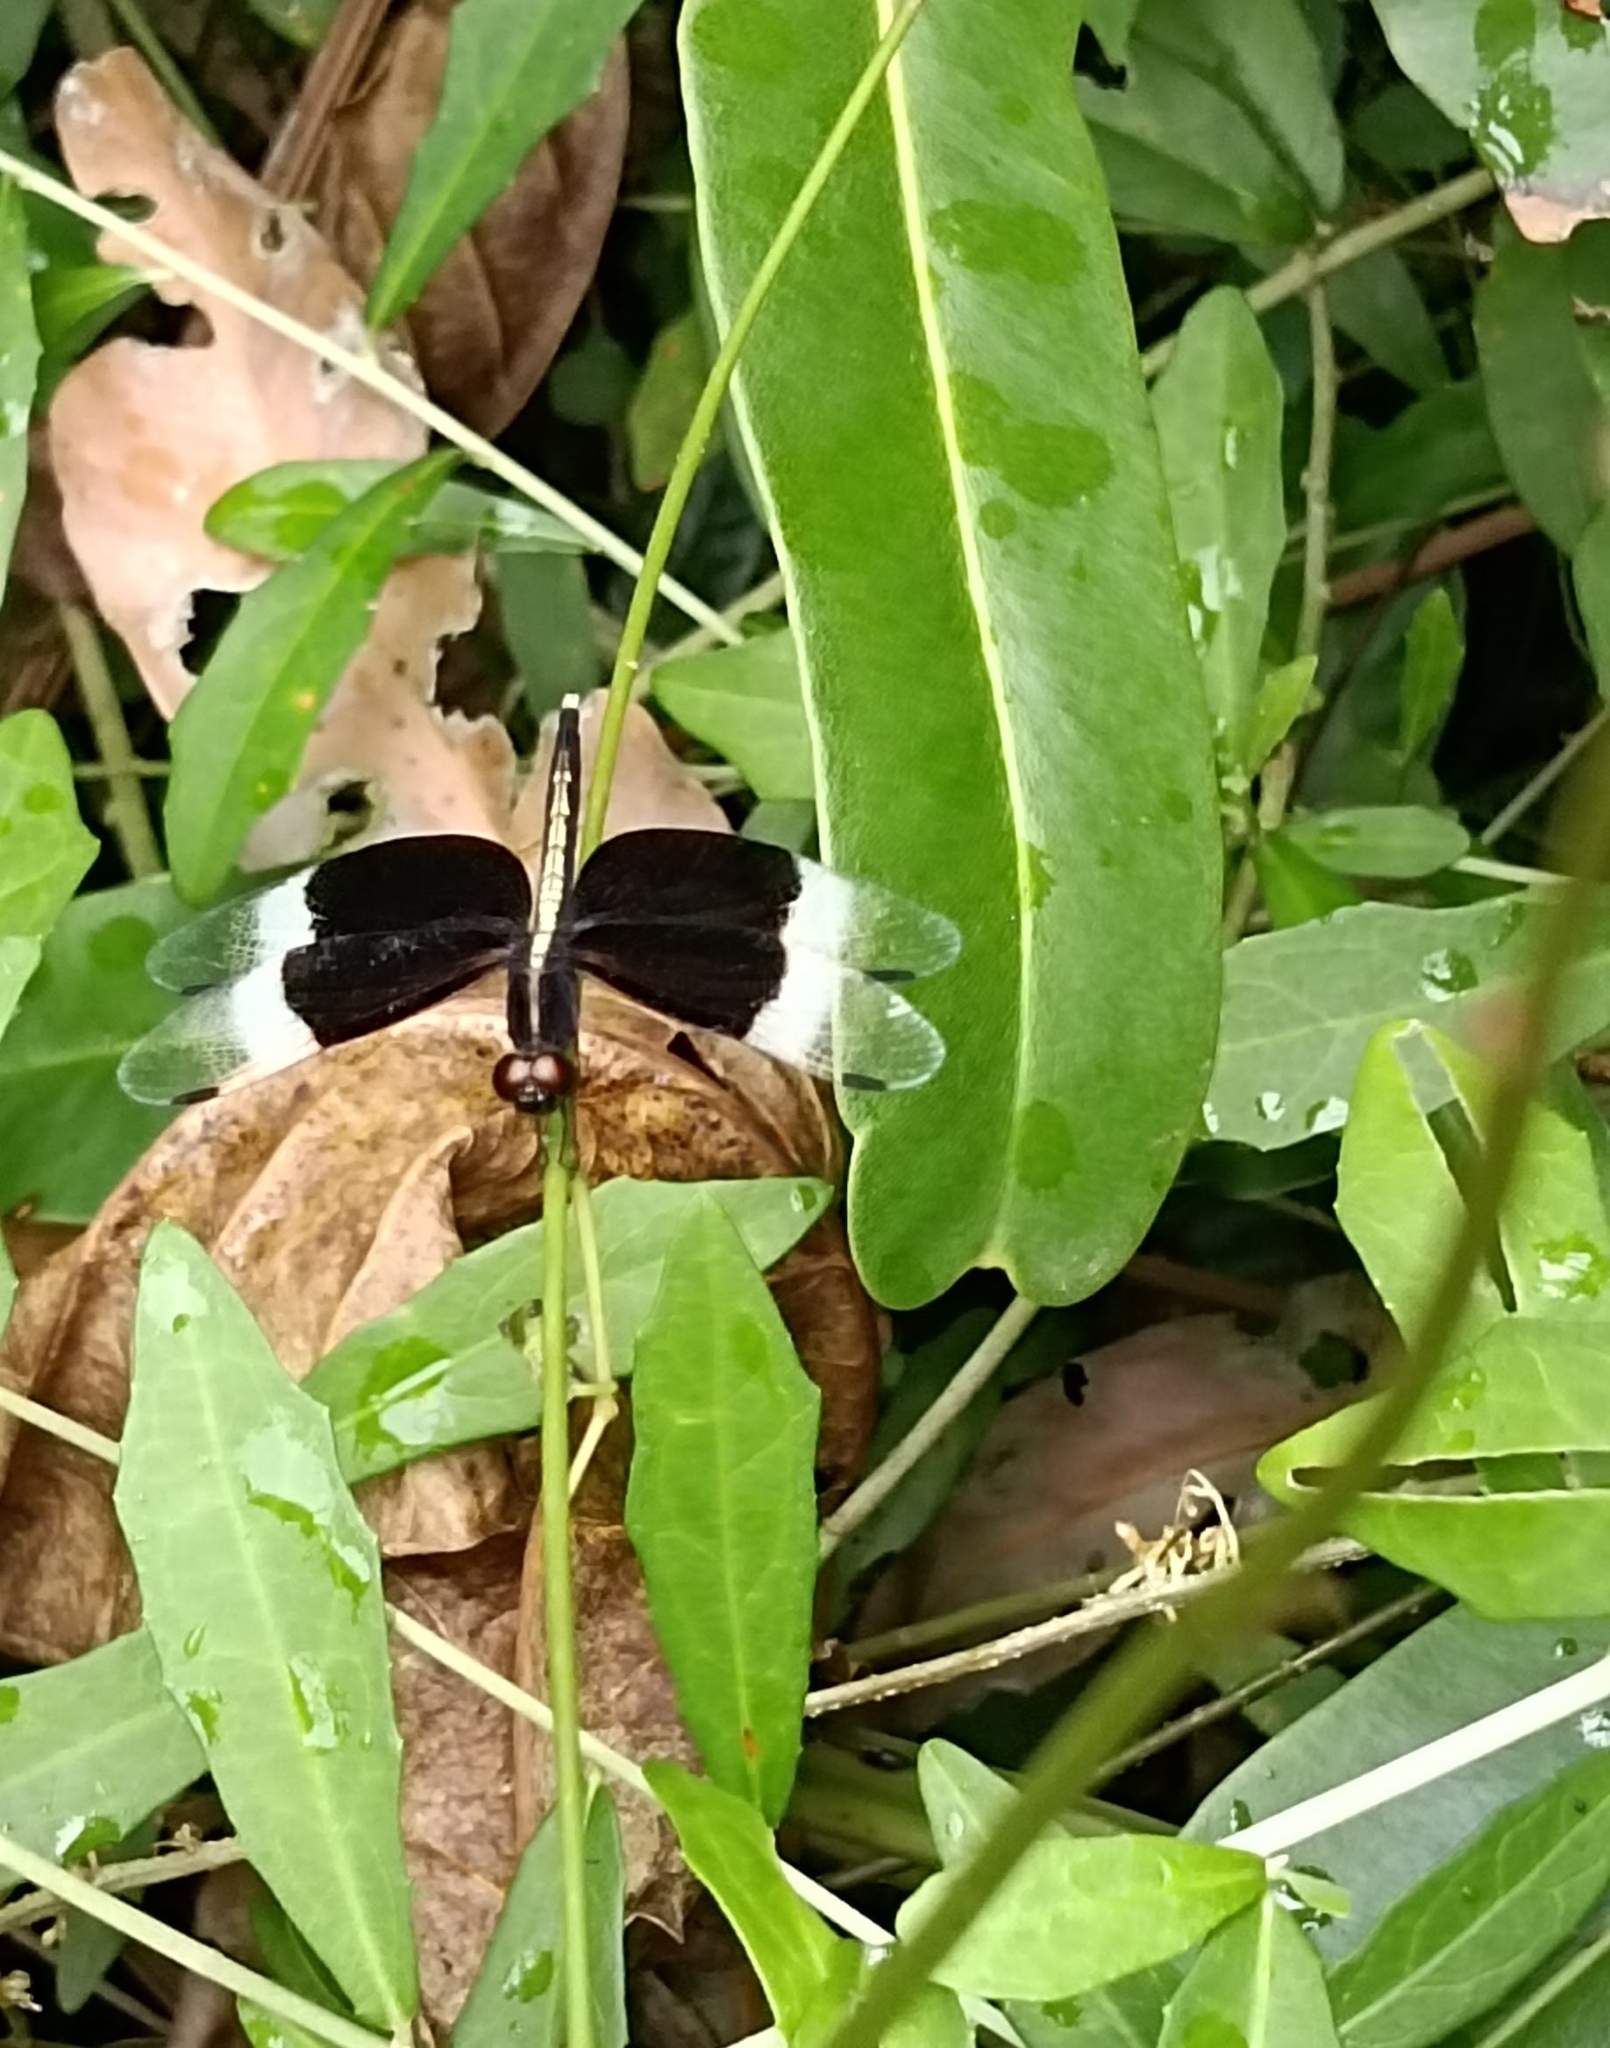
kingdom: Animalia
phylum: Arthropoda
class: Insecta
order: Odonata
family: Libellulidae
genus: Neurothemis
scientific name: Neurothemis tullia
